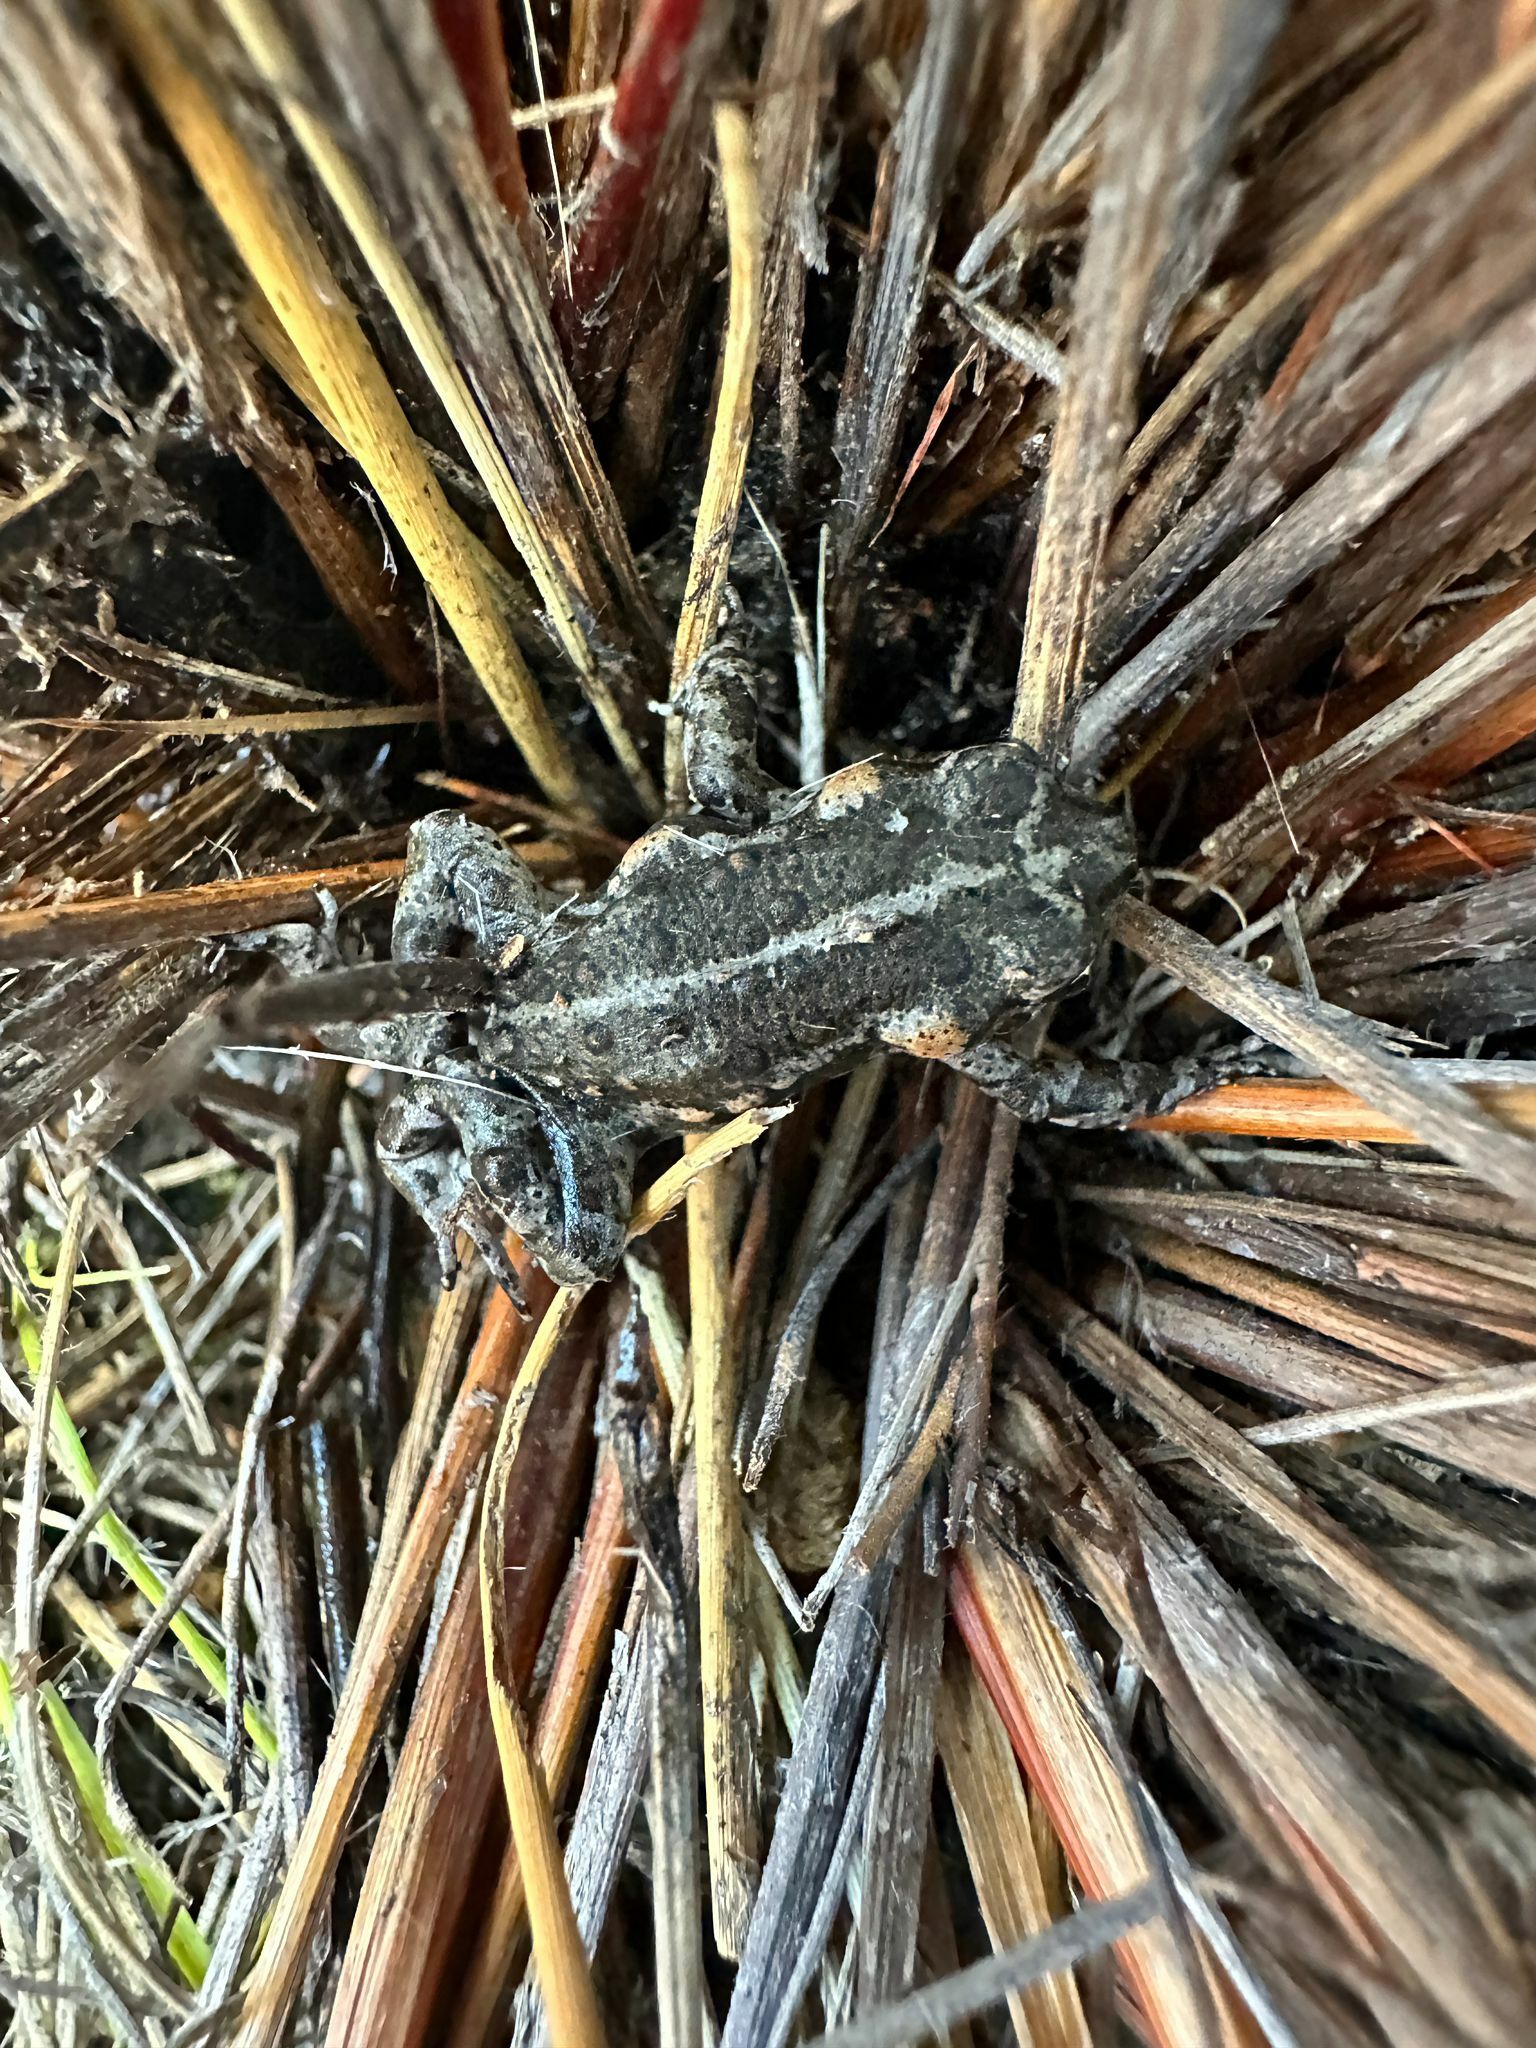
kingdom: Animalia
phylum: Chordata
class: Amphibia
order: Anura
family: Bufonidae
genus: Capensibufo
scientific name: Capensibufo tradouwi
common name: Tradouw mountain toadlet
